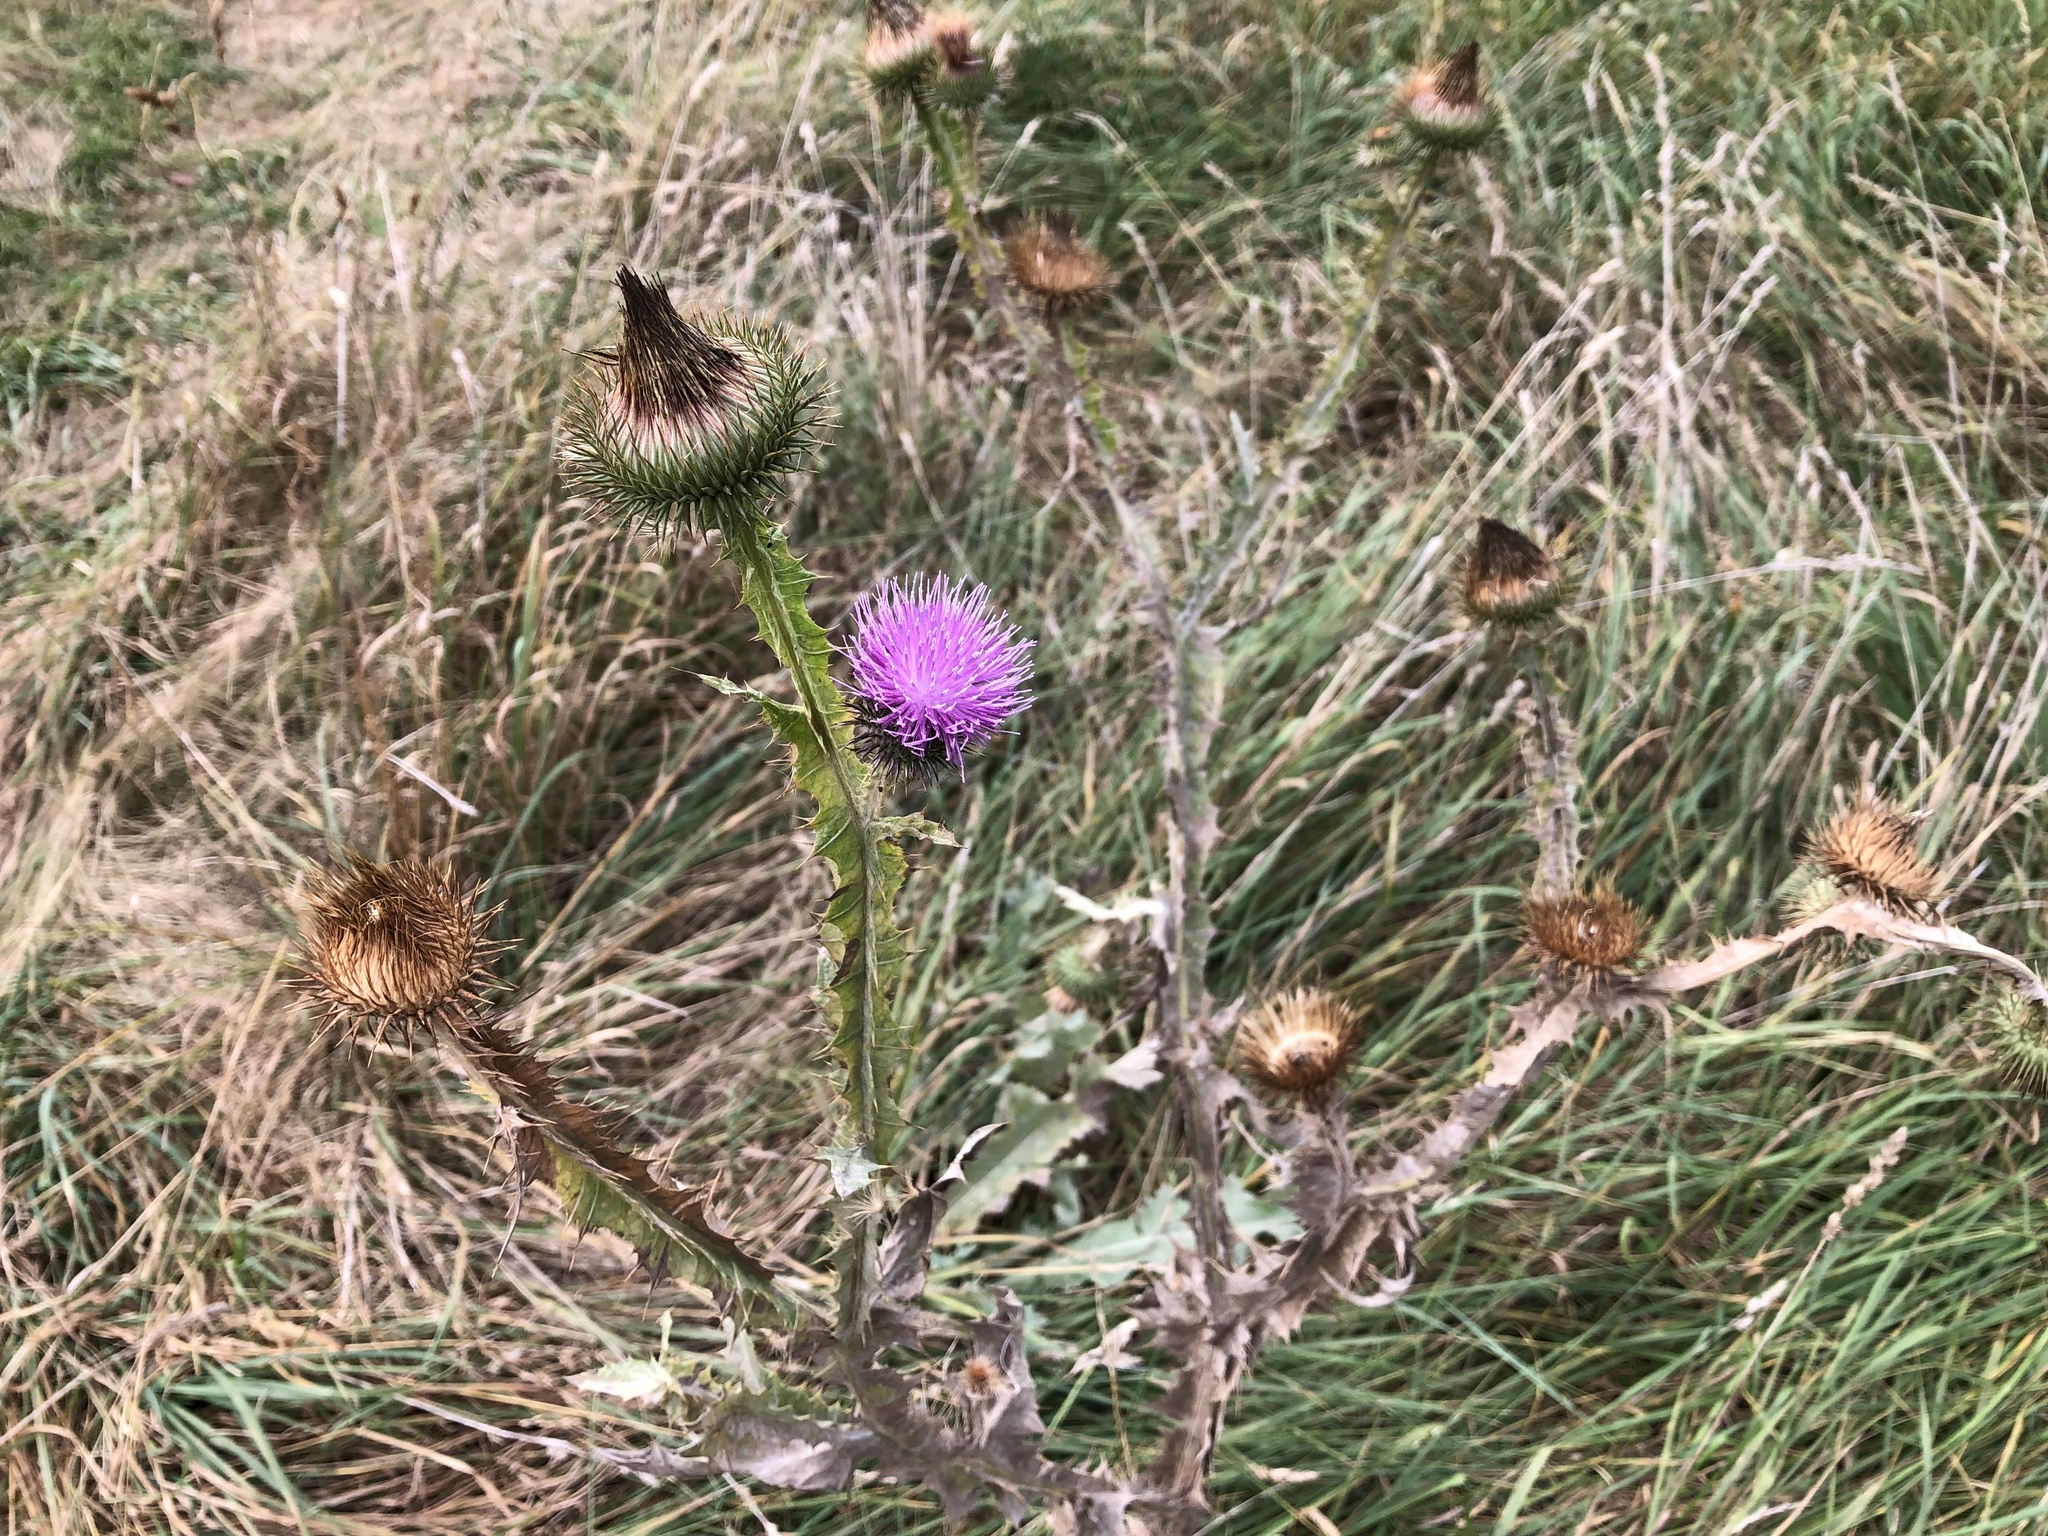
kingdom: Plantae
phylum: Tracheophyta
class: Magnoliopsida
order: Asterales
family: Asteraceae
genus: Onopordum
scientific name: Onopordum acanthium
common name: Scotch thistle
